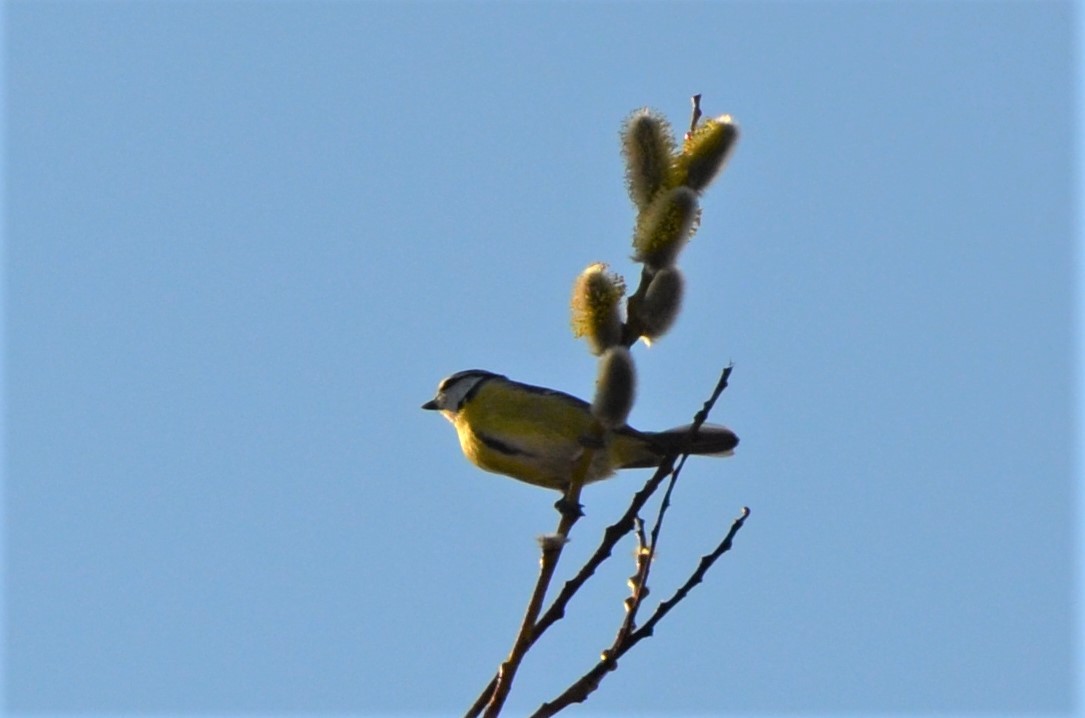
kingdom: Animalia
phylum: Chordata
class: Aves
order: Passeriformes
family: Paridae
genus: Cyanistes
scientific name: Cyanistes caeruleus
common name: Eurasian blue tit
